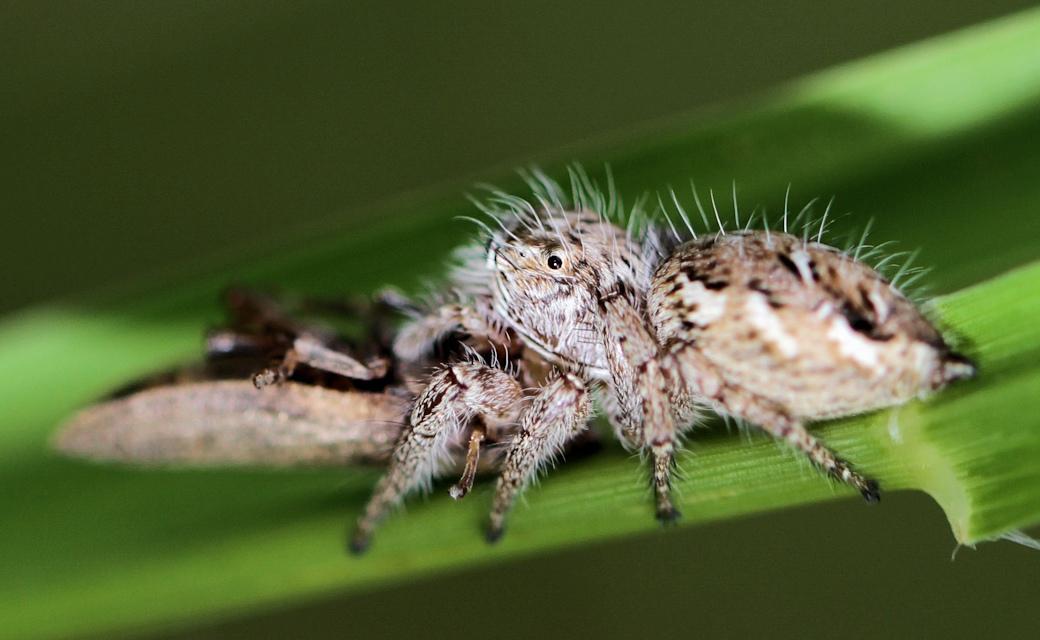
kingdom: Animalia
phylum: Arthropoda
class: Arachnida
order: Araneae
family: Salticidae
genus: Hyllus
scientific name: Hyllus dotatus
